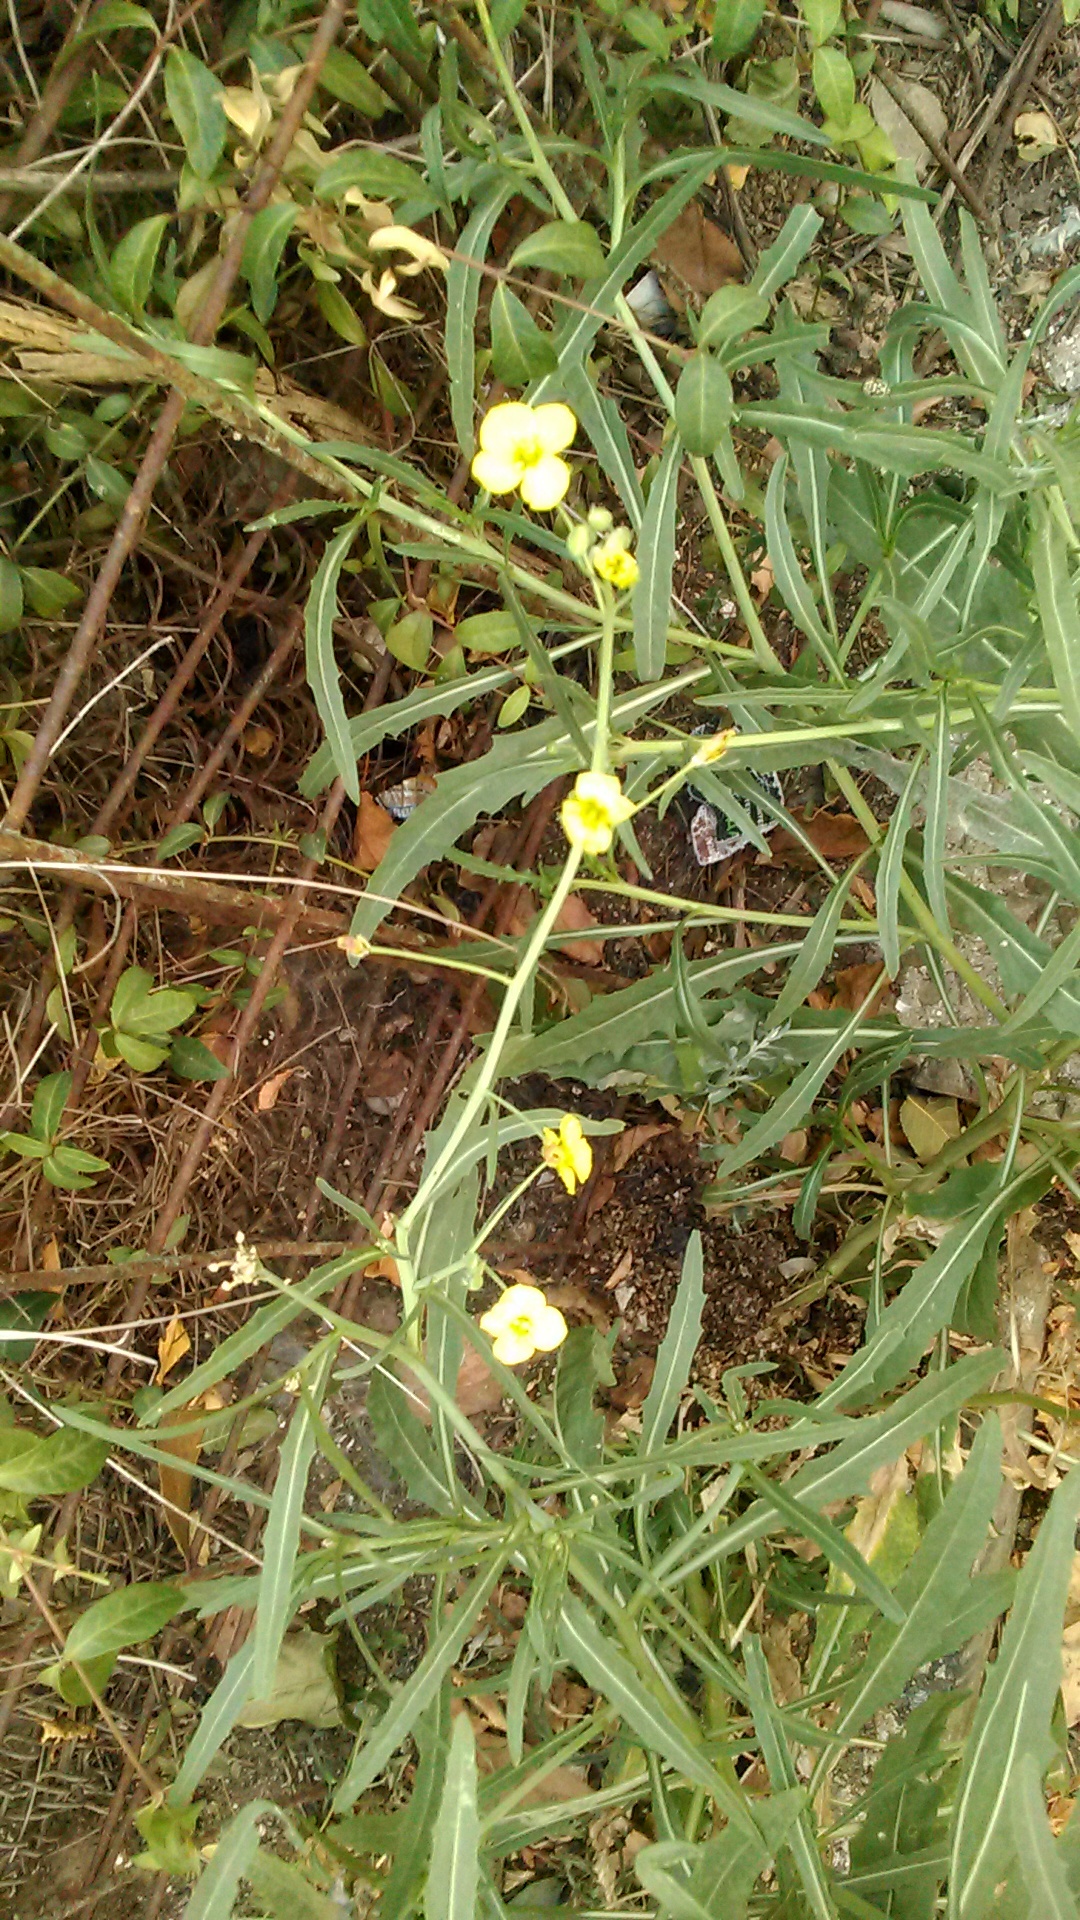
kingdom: Plantae
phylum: Tracheophyta
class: Magnoliopsida
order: Brassicales
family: Brassicaceae
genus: Diplotaxis
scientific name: Diplotaxis tenuifolia
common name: Perennial wall-rocket
